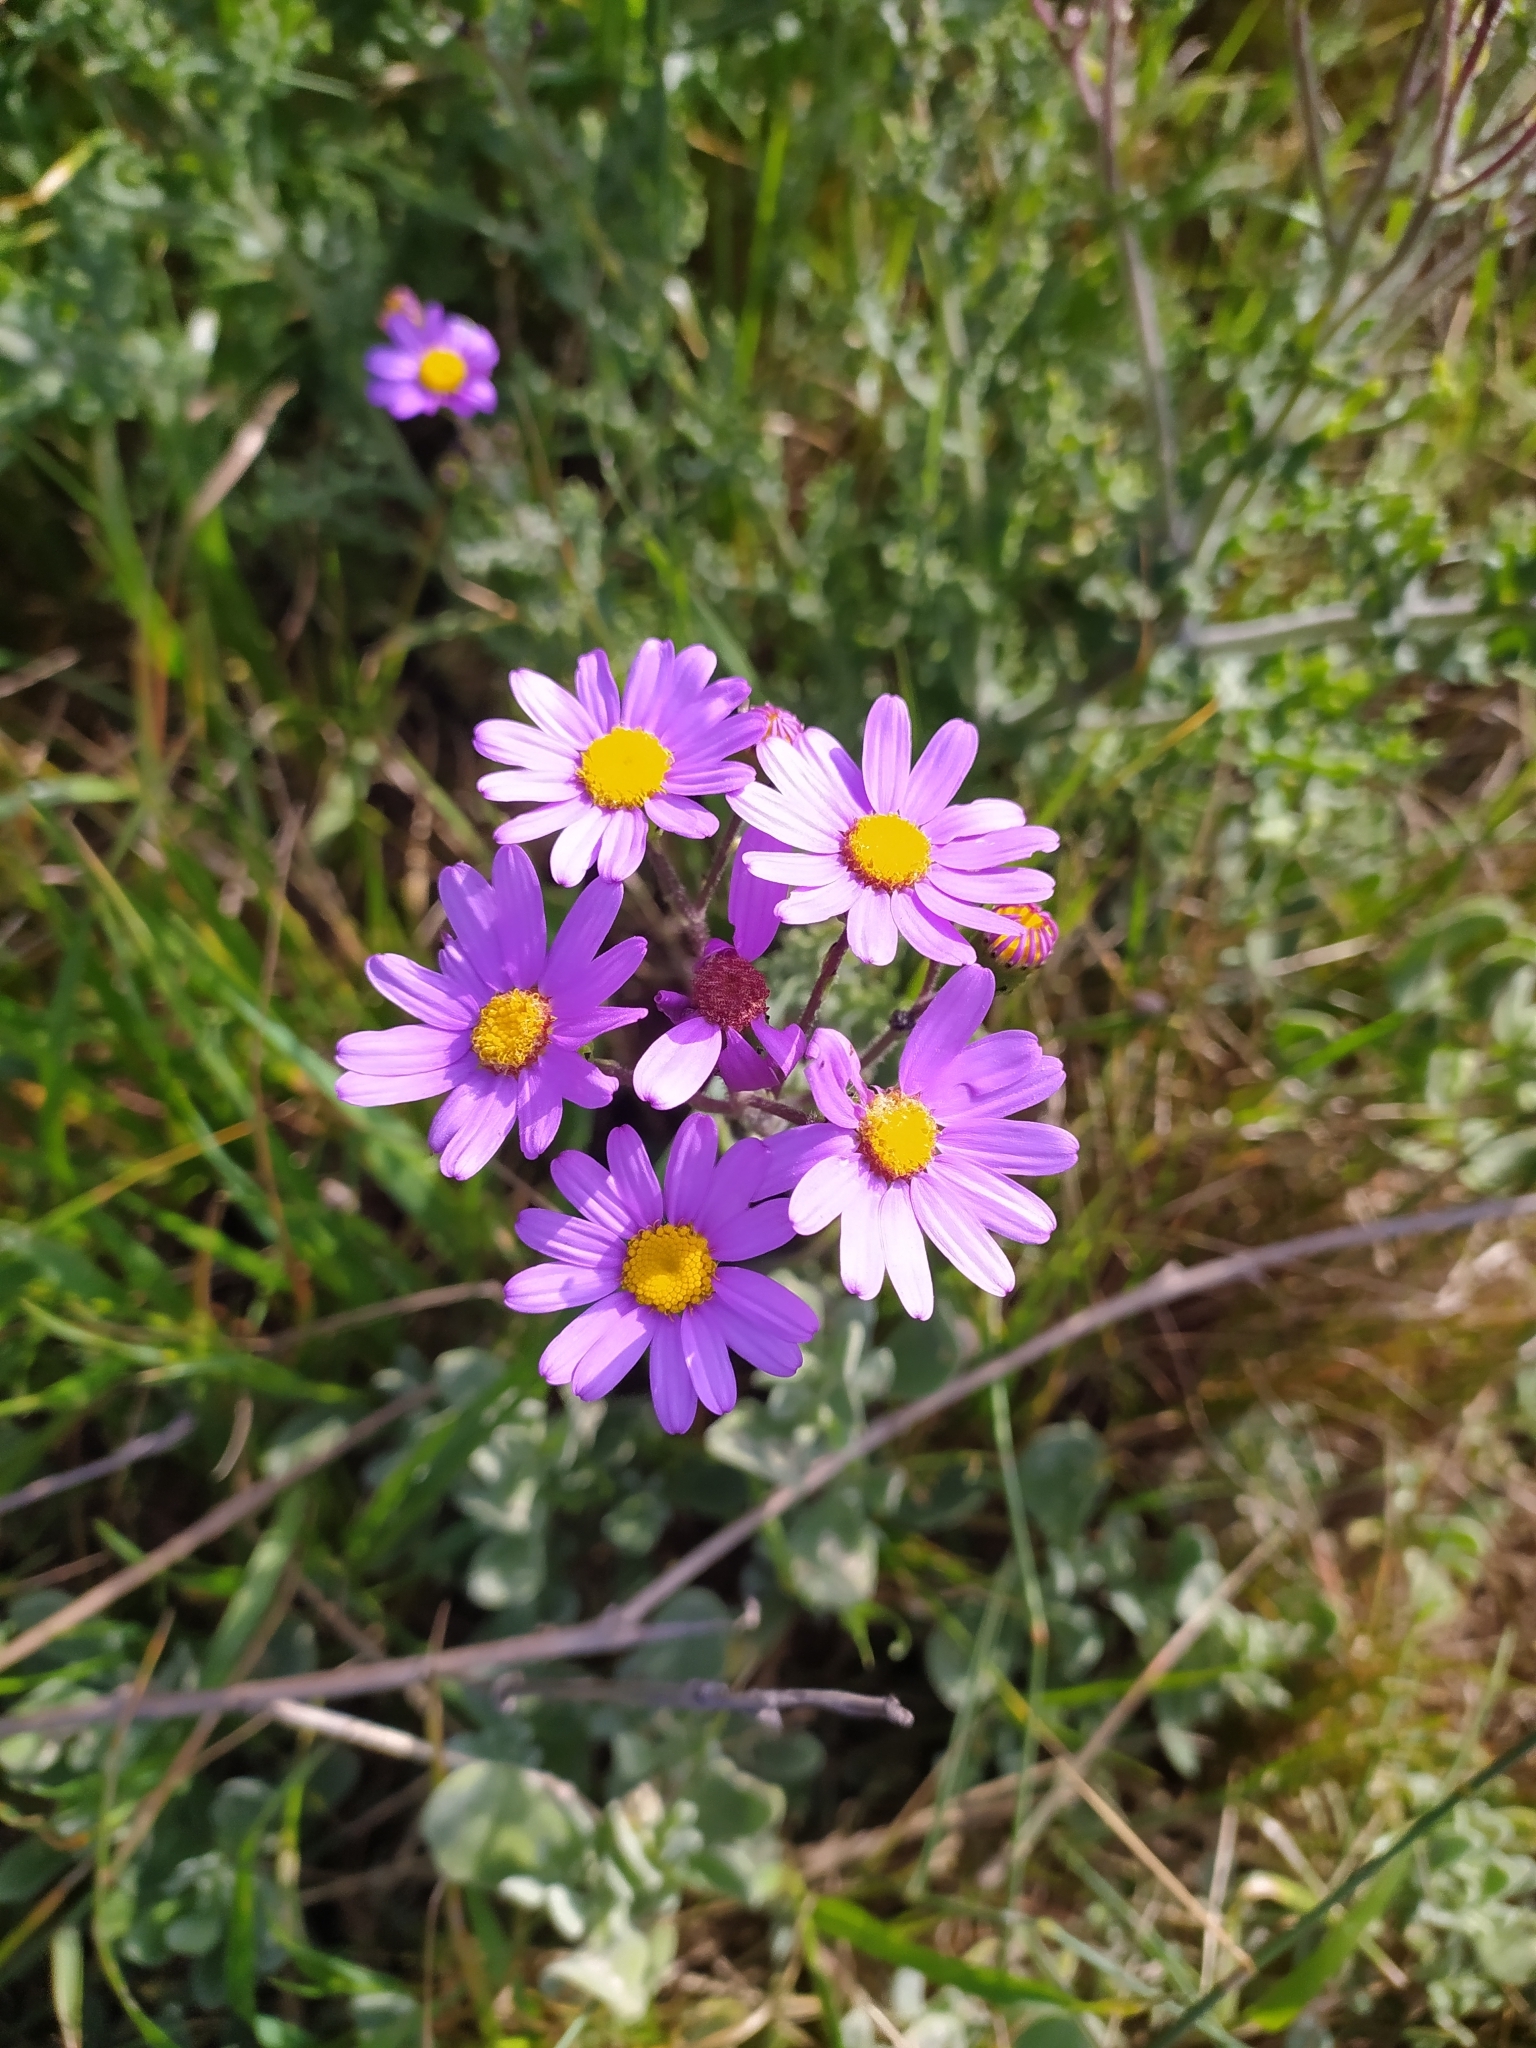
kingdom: Plantae
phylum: Tracheophyta
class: Magnoliopsida
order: Asterales
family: Asteraceae
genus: Senecio
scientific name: Senecio elegans
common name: Purple groundsel
